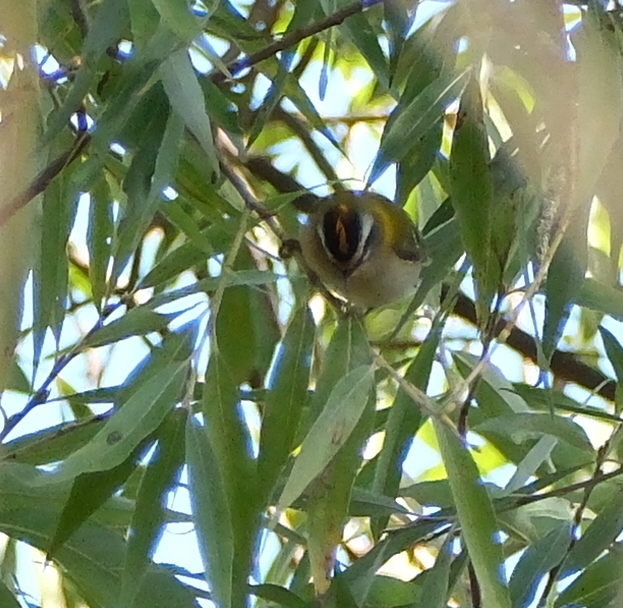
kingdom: Animalia
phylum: Chordata
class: Aves
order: Passeriformes
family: Regulidae
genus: Regulus
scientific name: Regulus ignicapilla
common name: Firecrest
